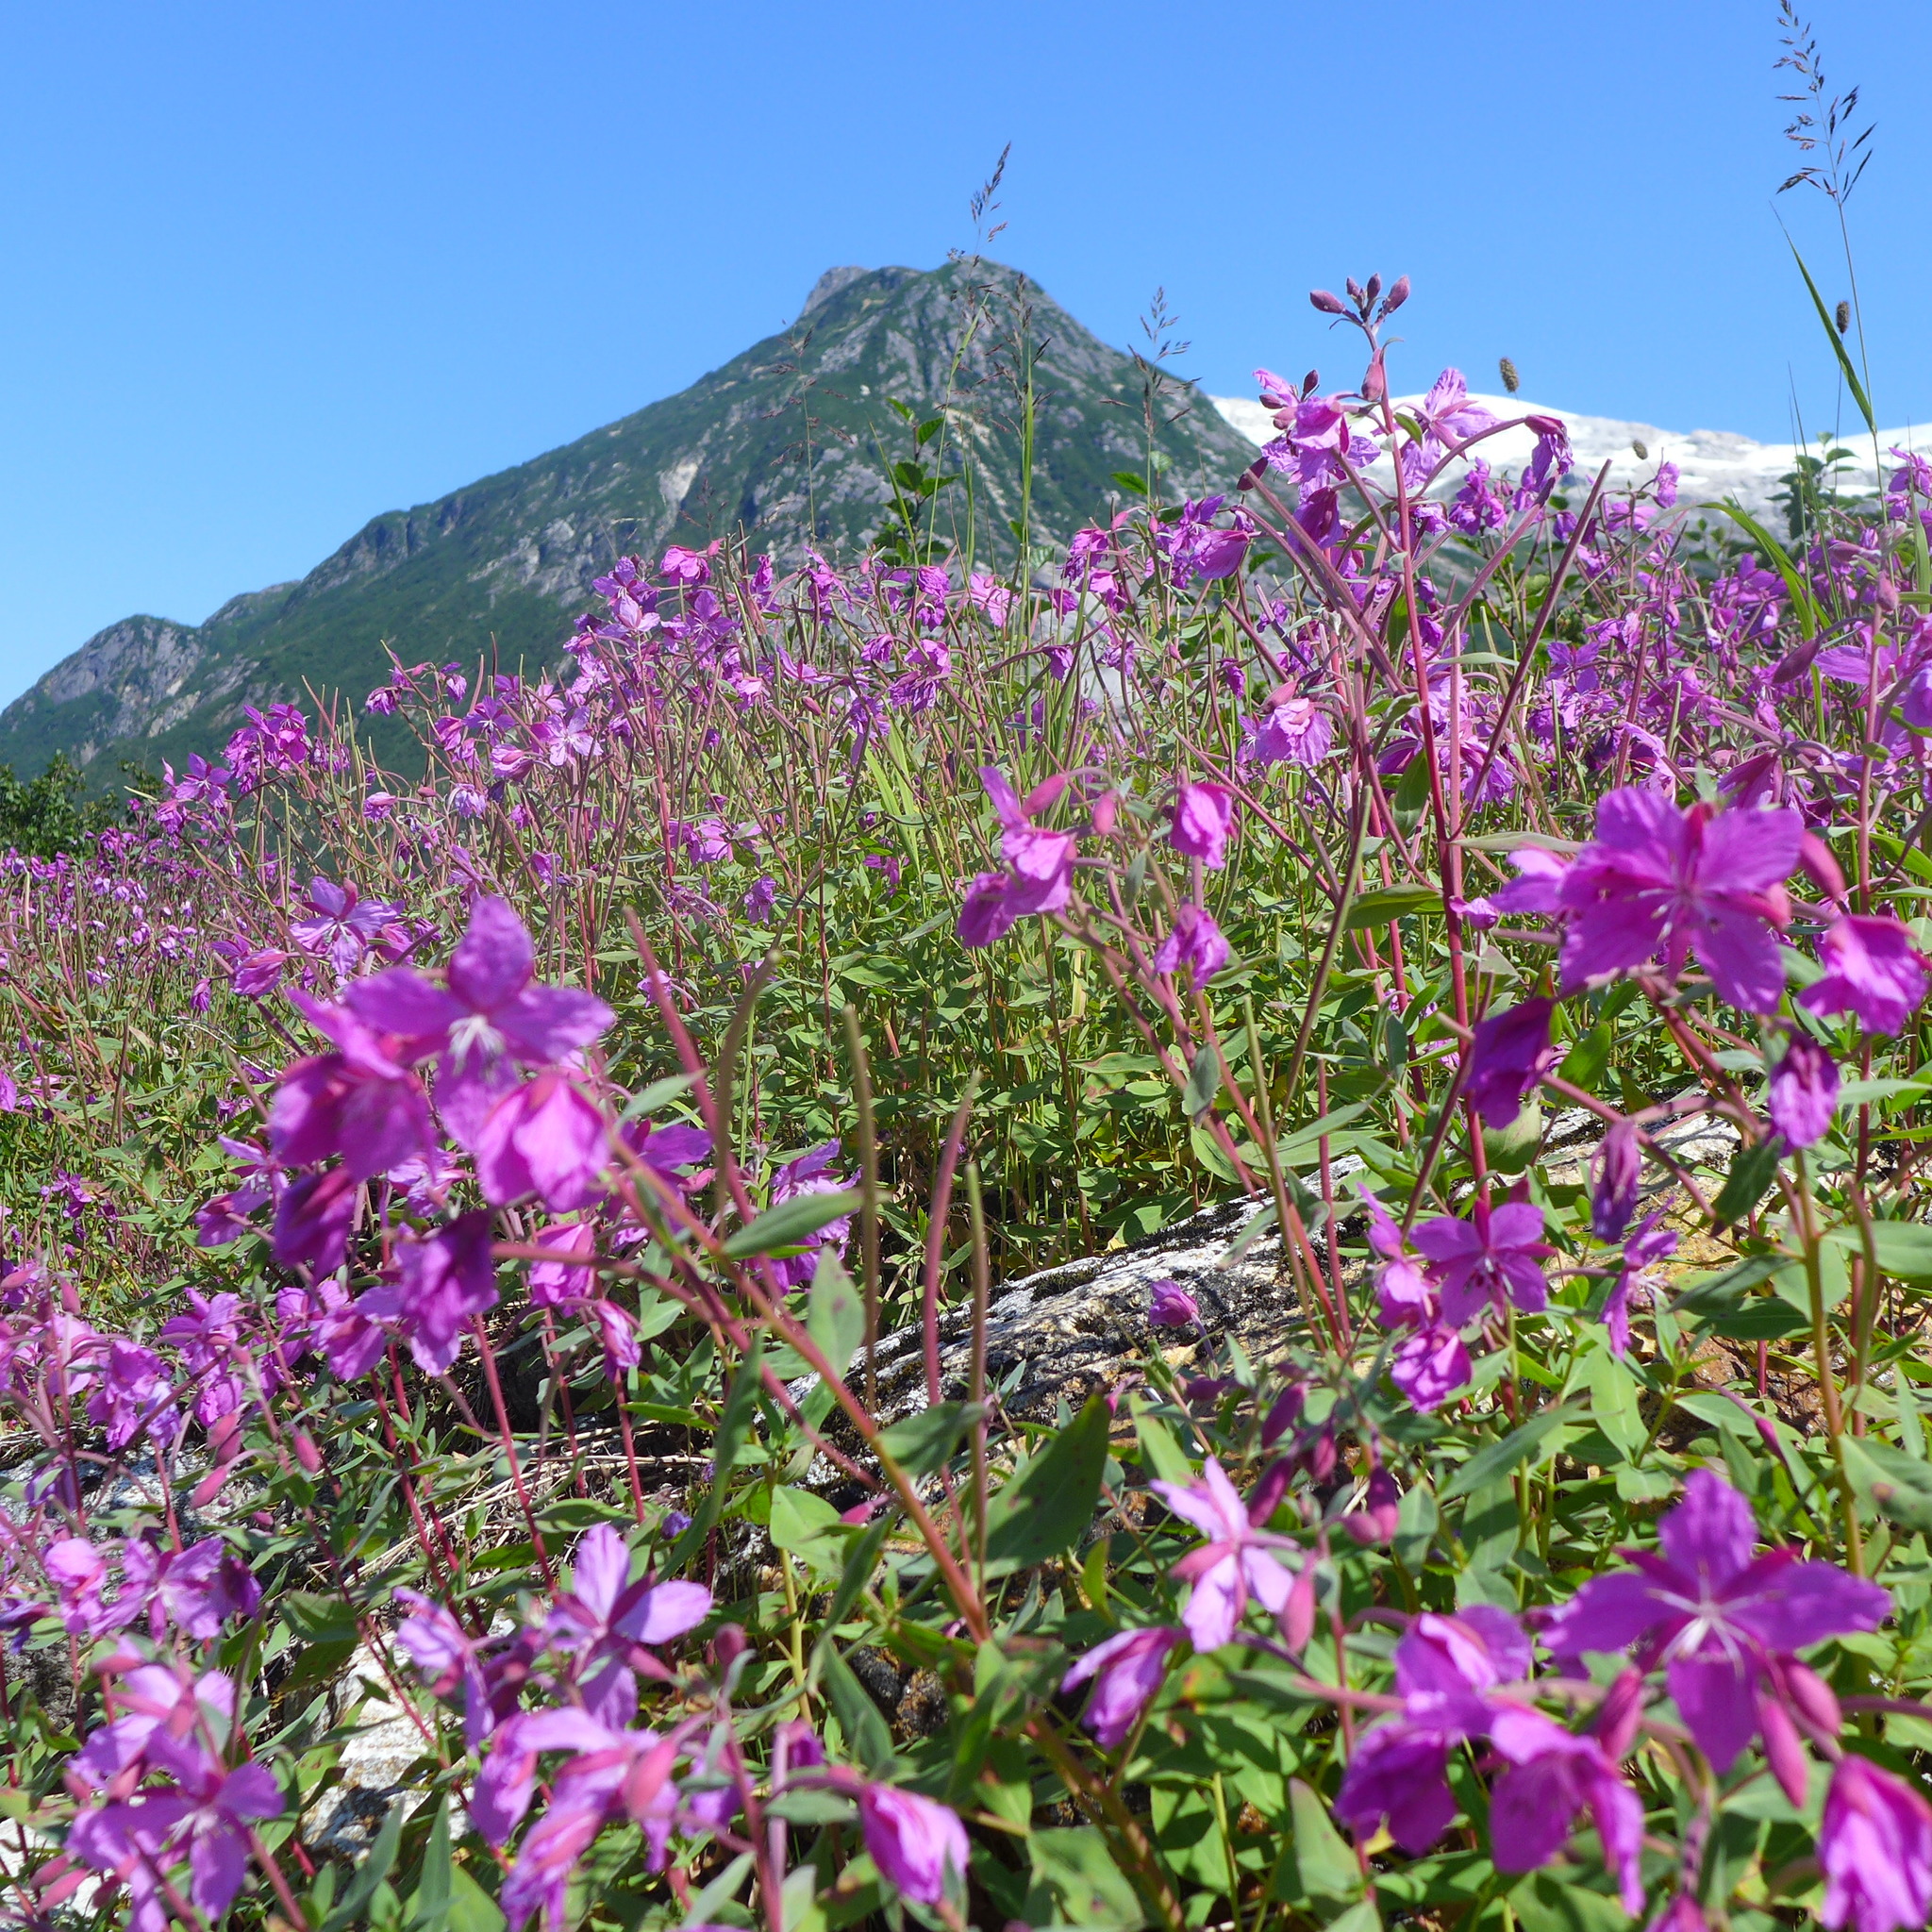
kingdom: Plantae
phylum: Tracheophyta
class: Magnoliopsida
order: Myrtales
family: Onagraceae
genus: Chamaenerion
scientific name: Chamaenerion latifolium
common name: Dwarf fireweed
